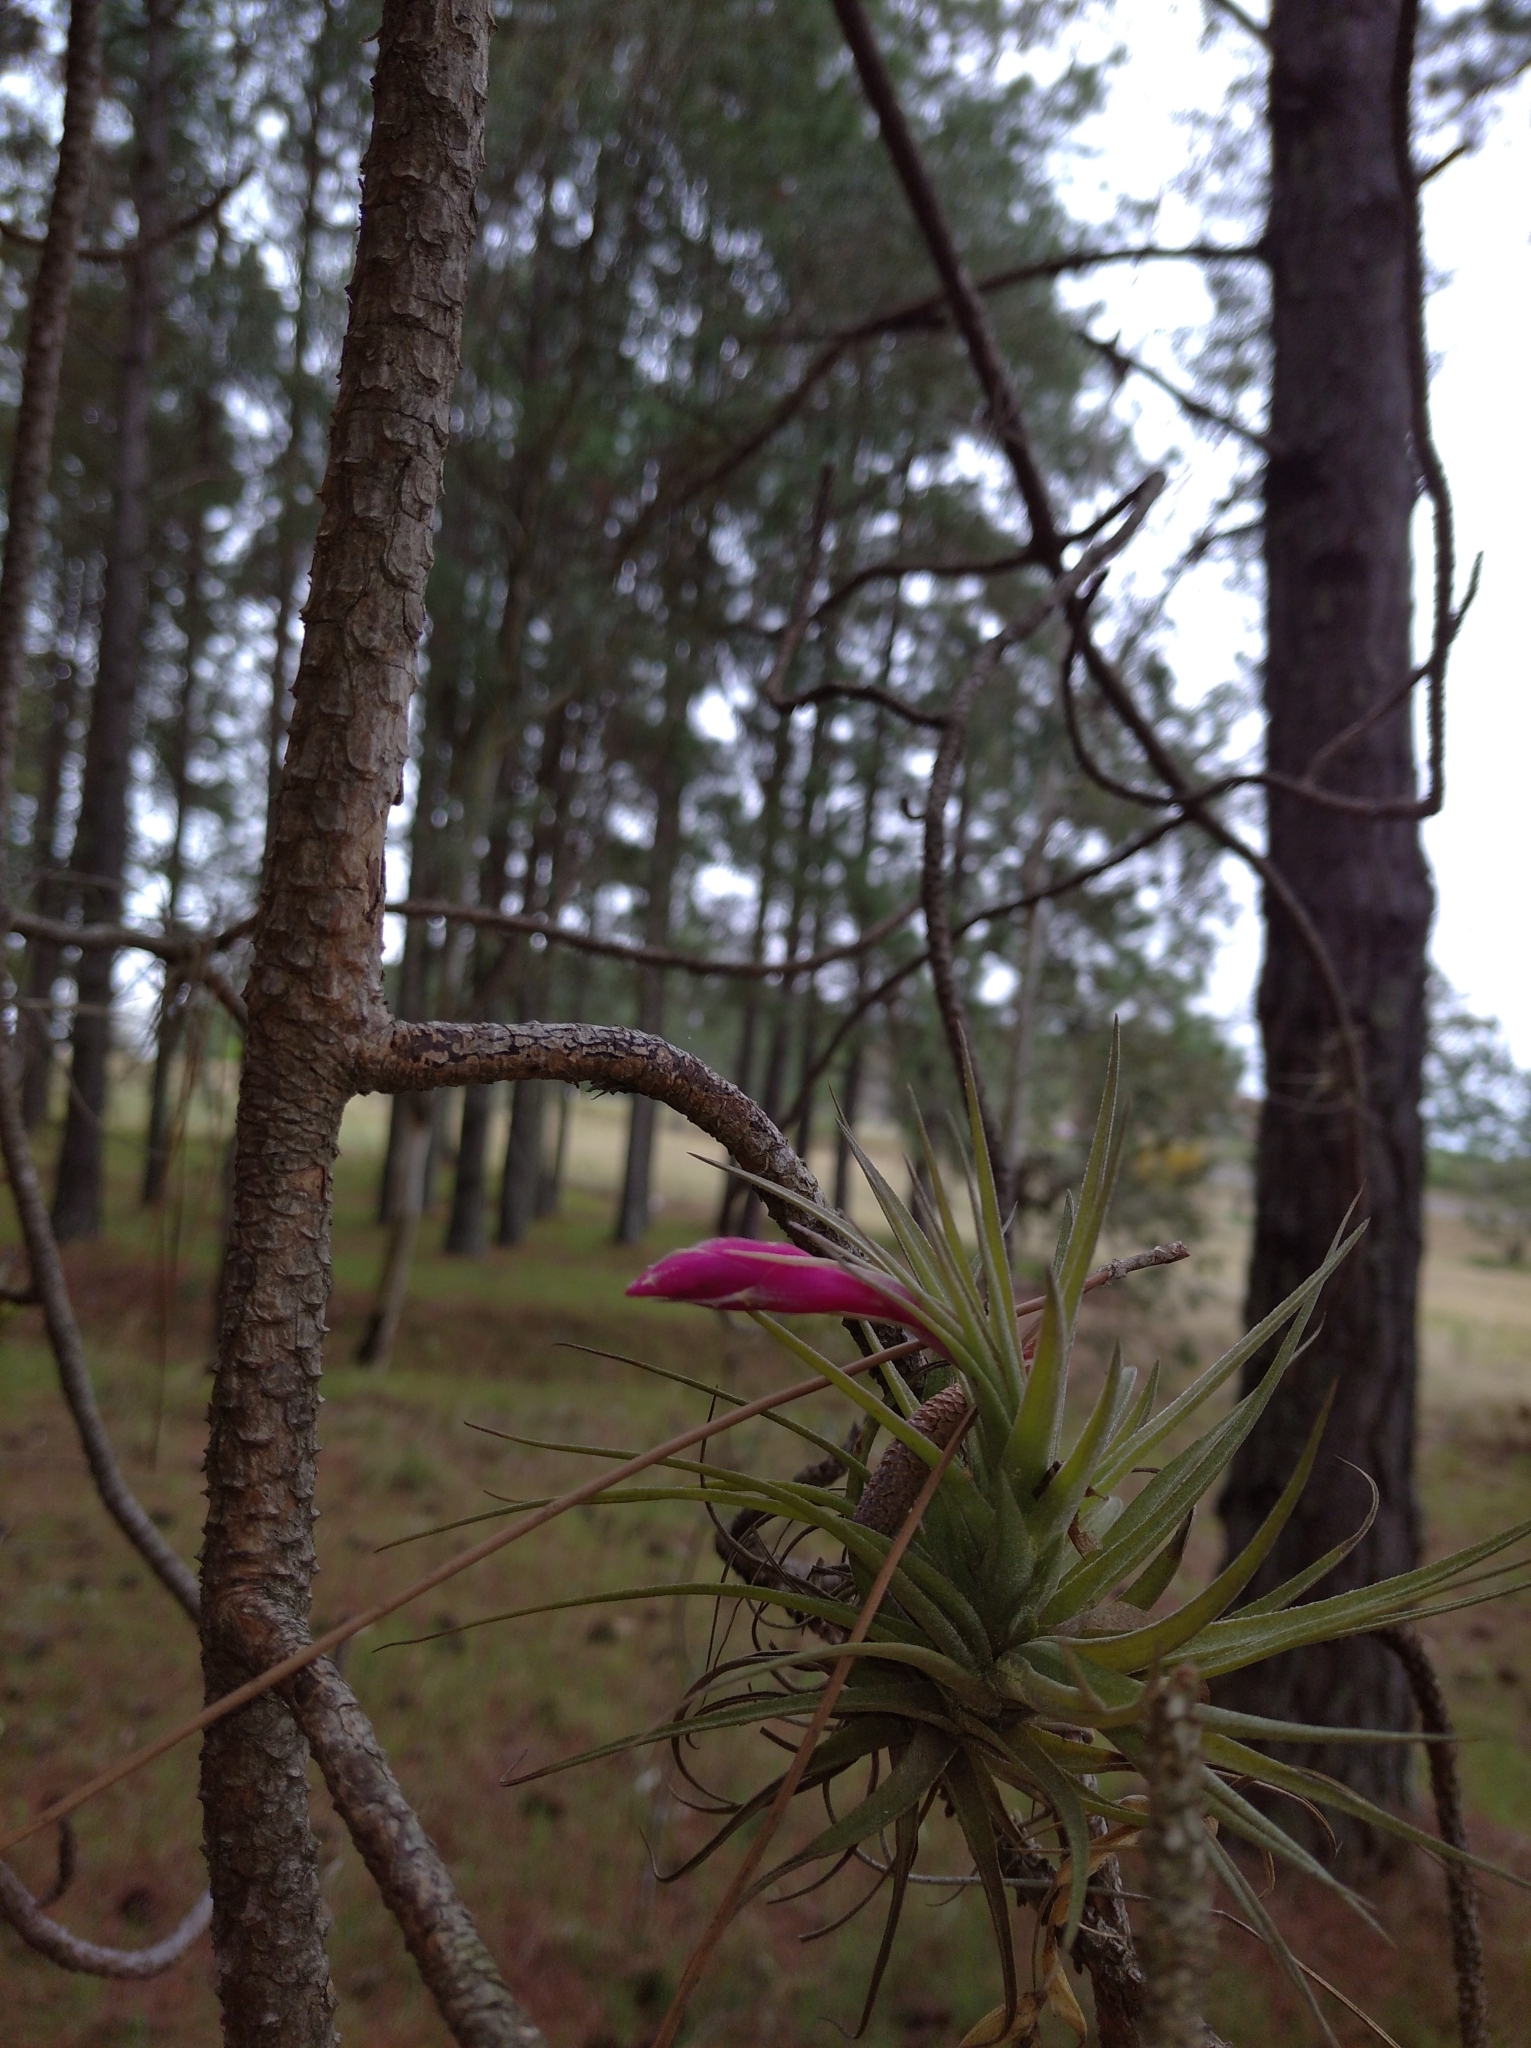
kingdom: Plantae
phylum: Tracheophyta
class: Liliopsida
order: Poales
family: Bromeliaceae
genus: Tillandsia
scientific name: Tillandsia aeranthos
